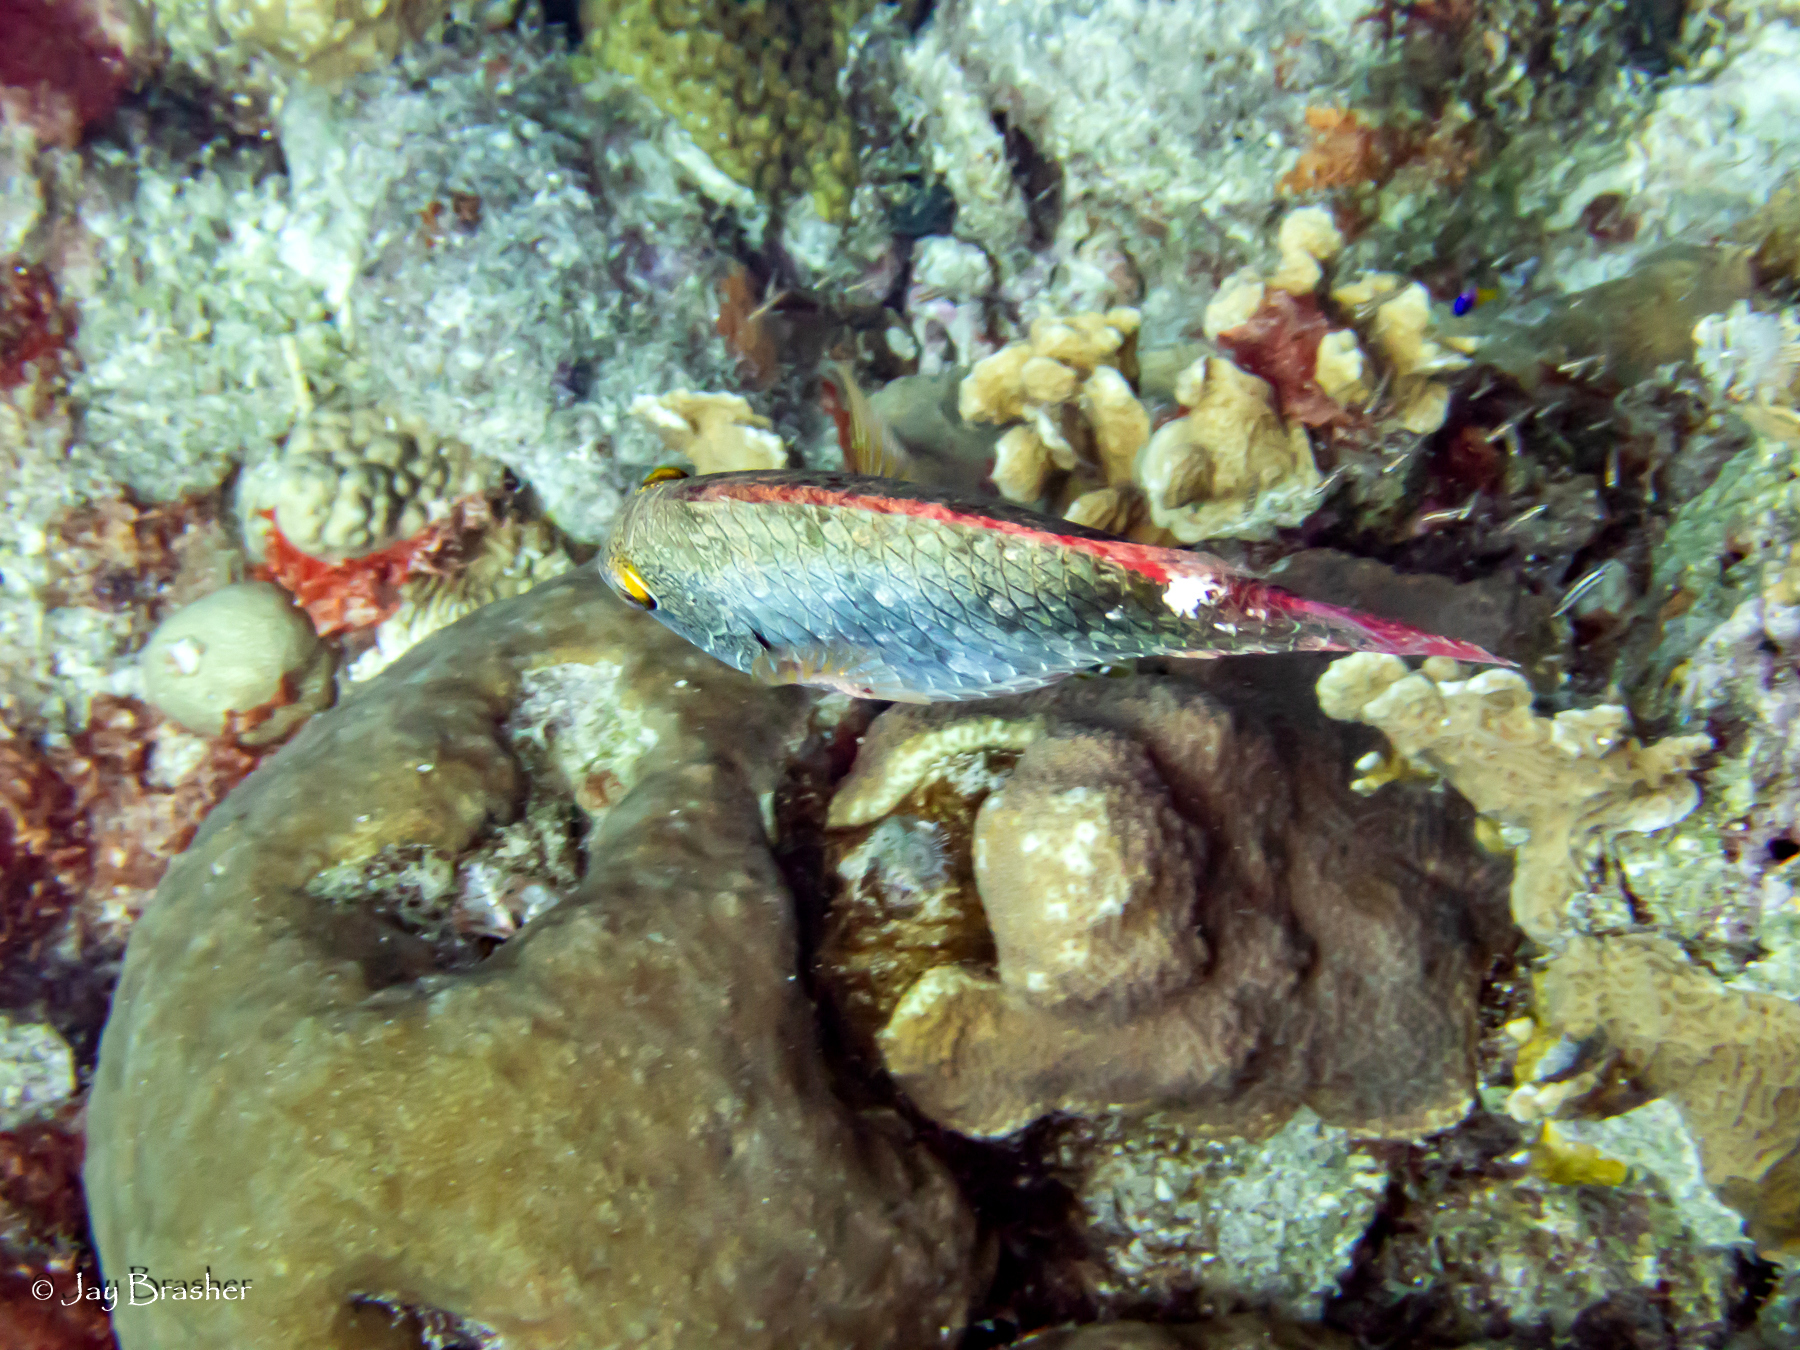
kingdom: Animalia
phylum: Chordata
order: Perciformes
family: Scaridae
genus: Sparisoma
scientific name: Sparisoma aurofrenatum
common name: Redband parrotfish
